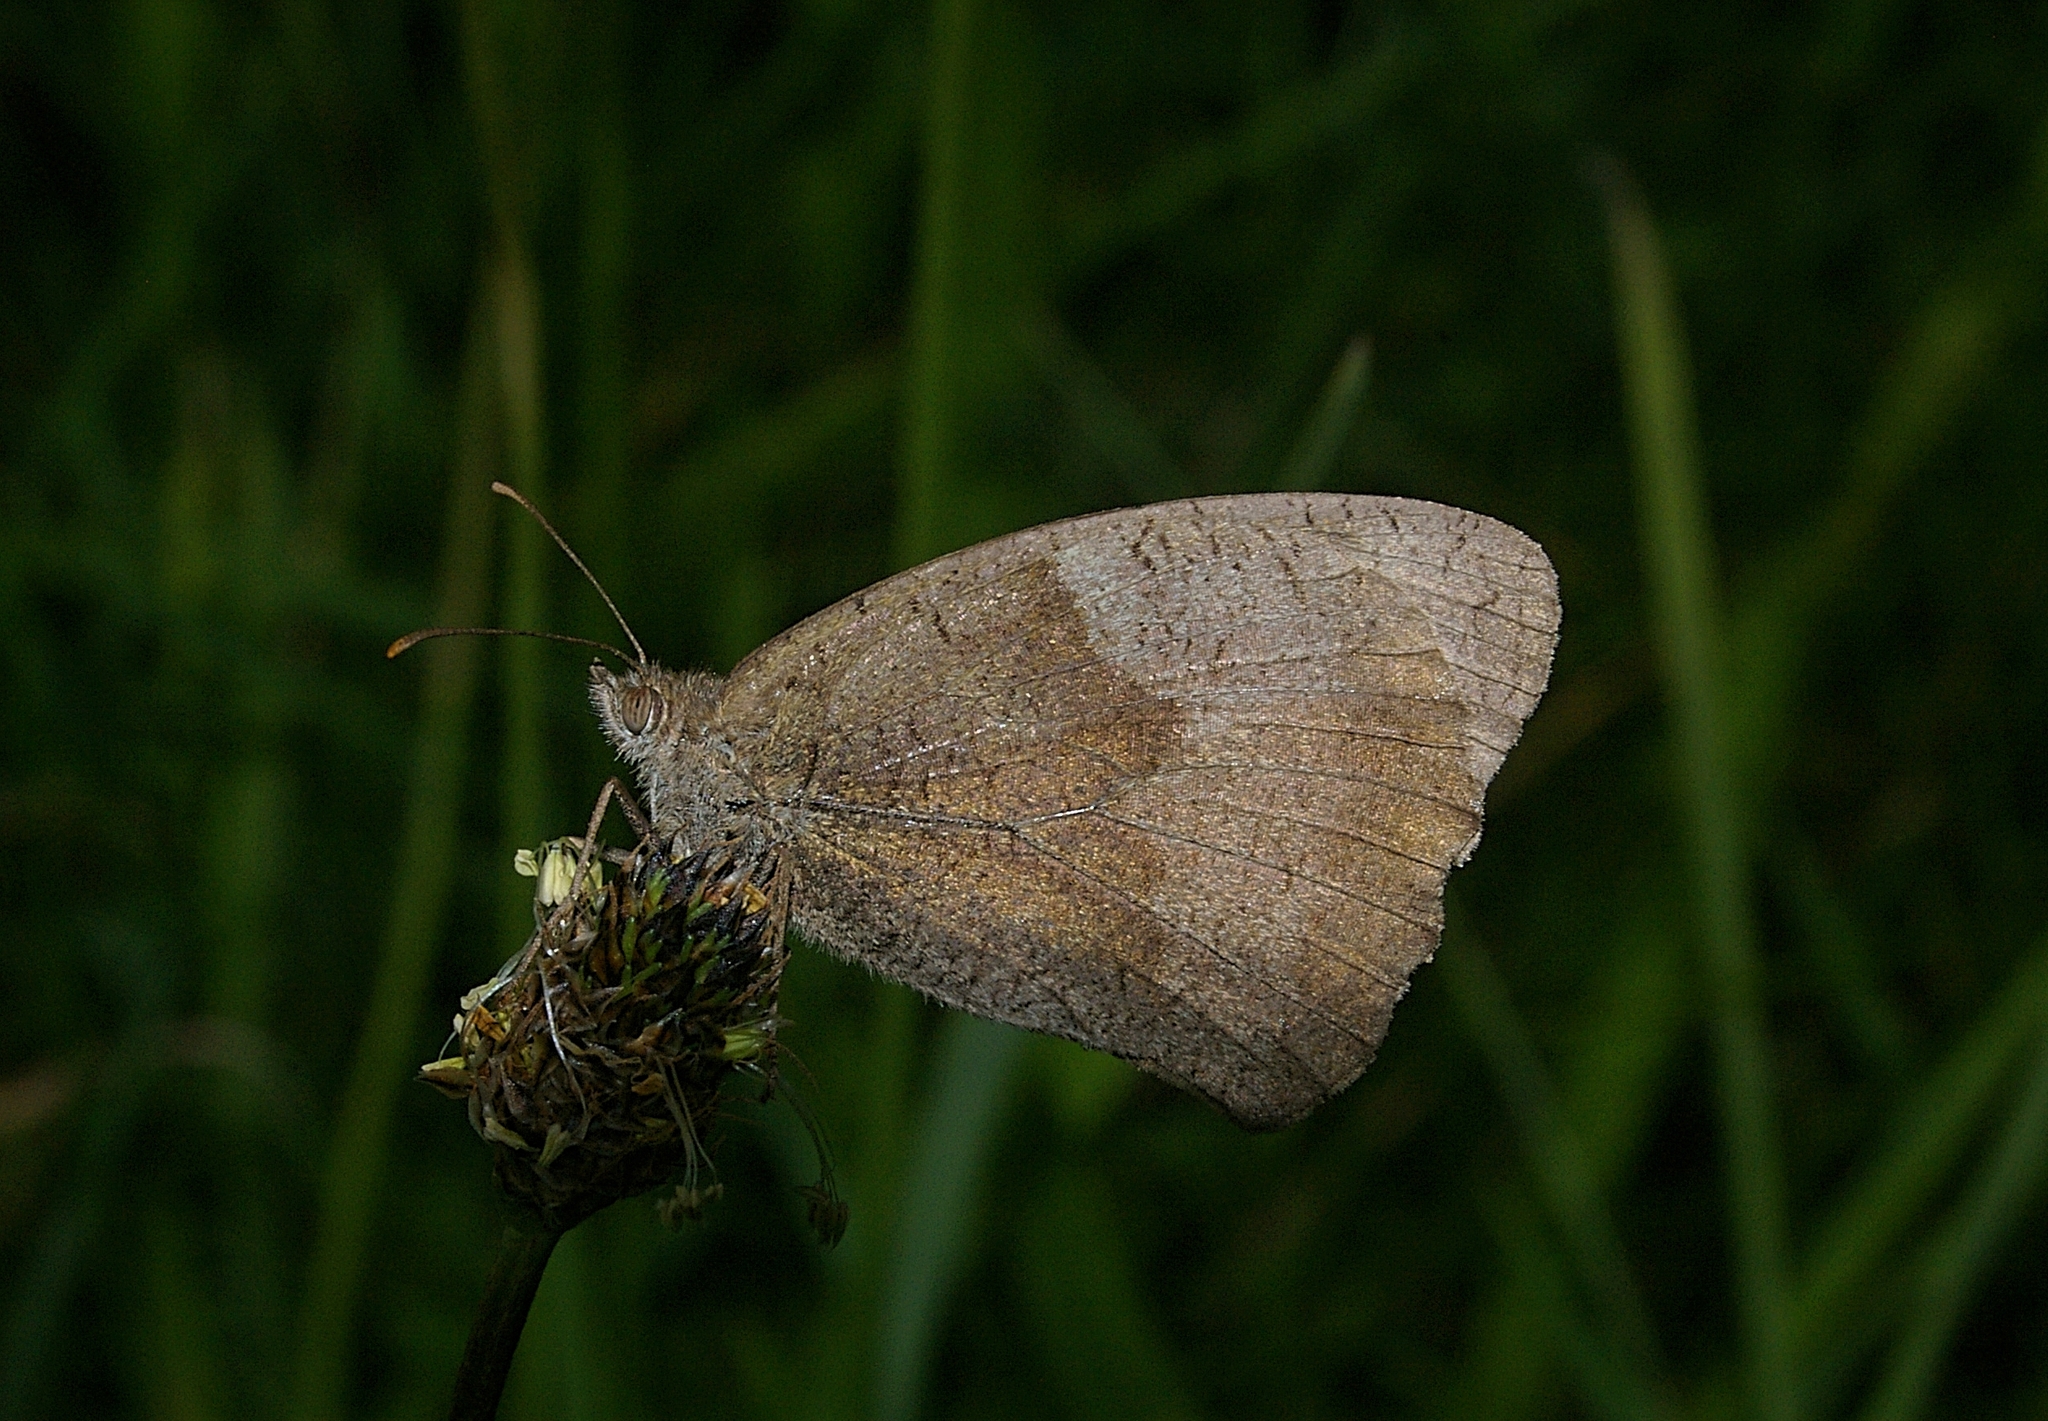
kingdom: Animalia
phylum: Arthropoda
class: Insecta
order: Lepidoptera
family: Nymphalidae
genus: Maniola
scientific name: Maniola jurtina
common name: Meadow brown
